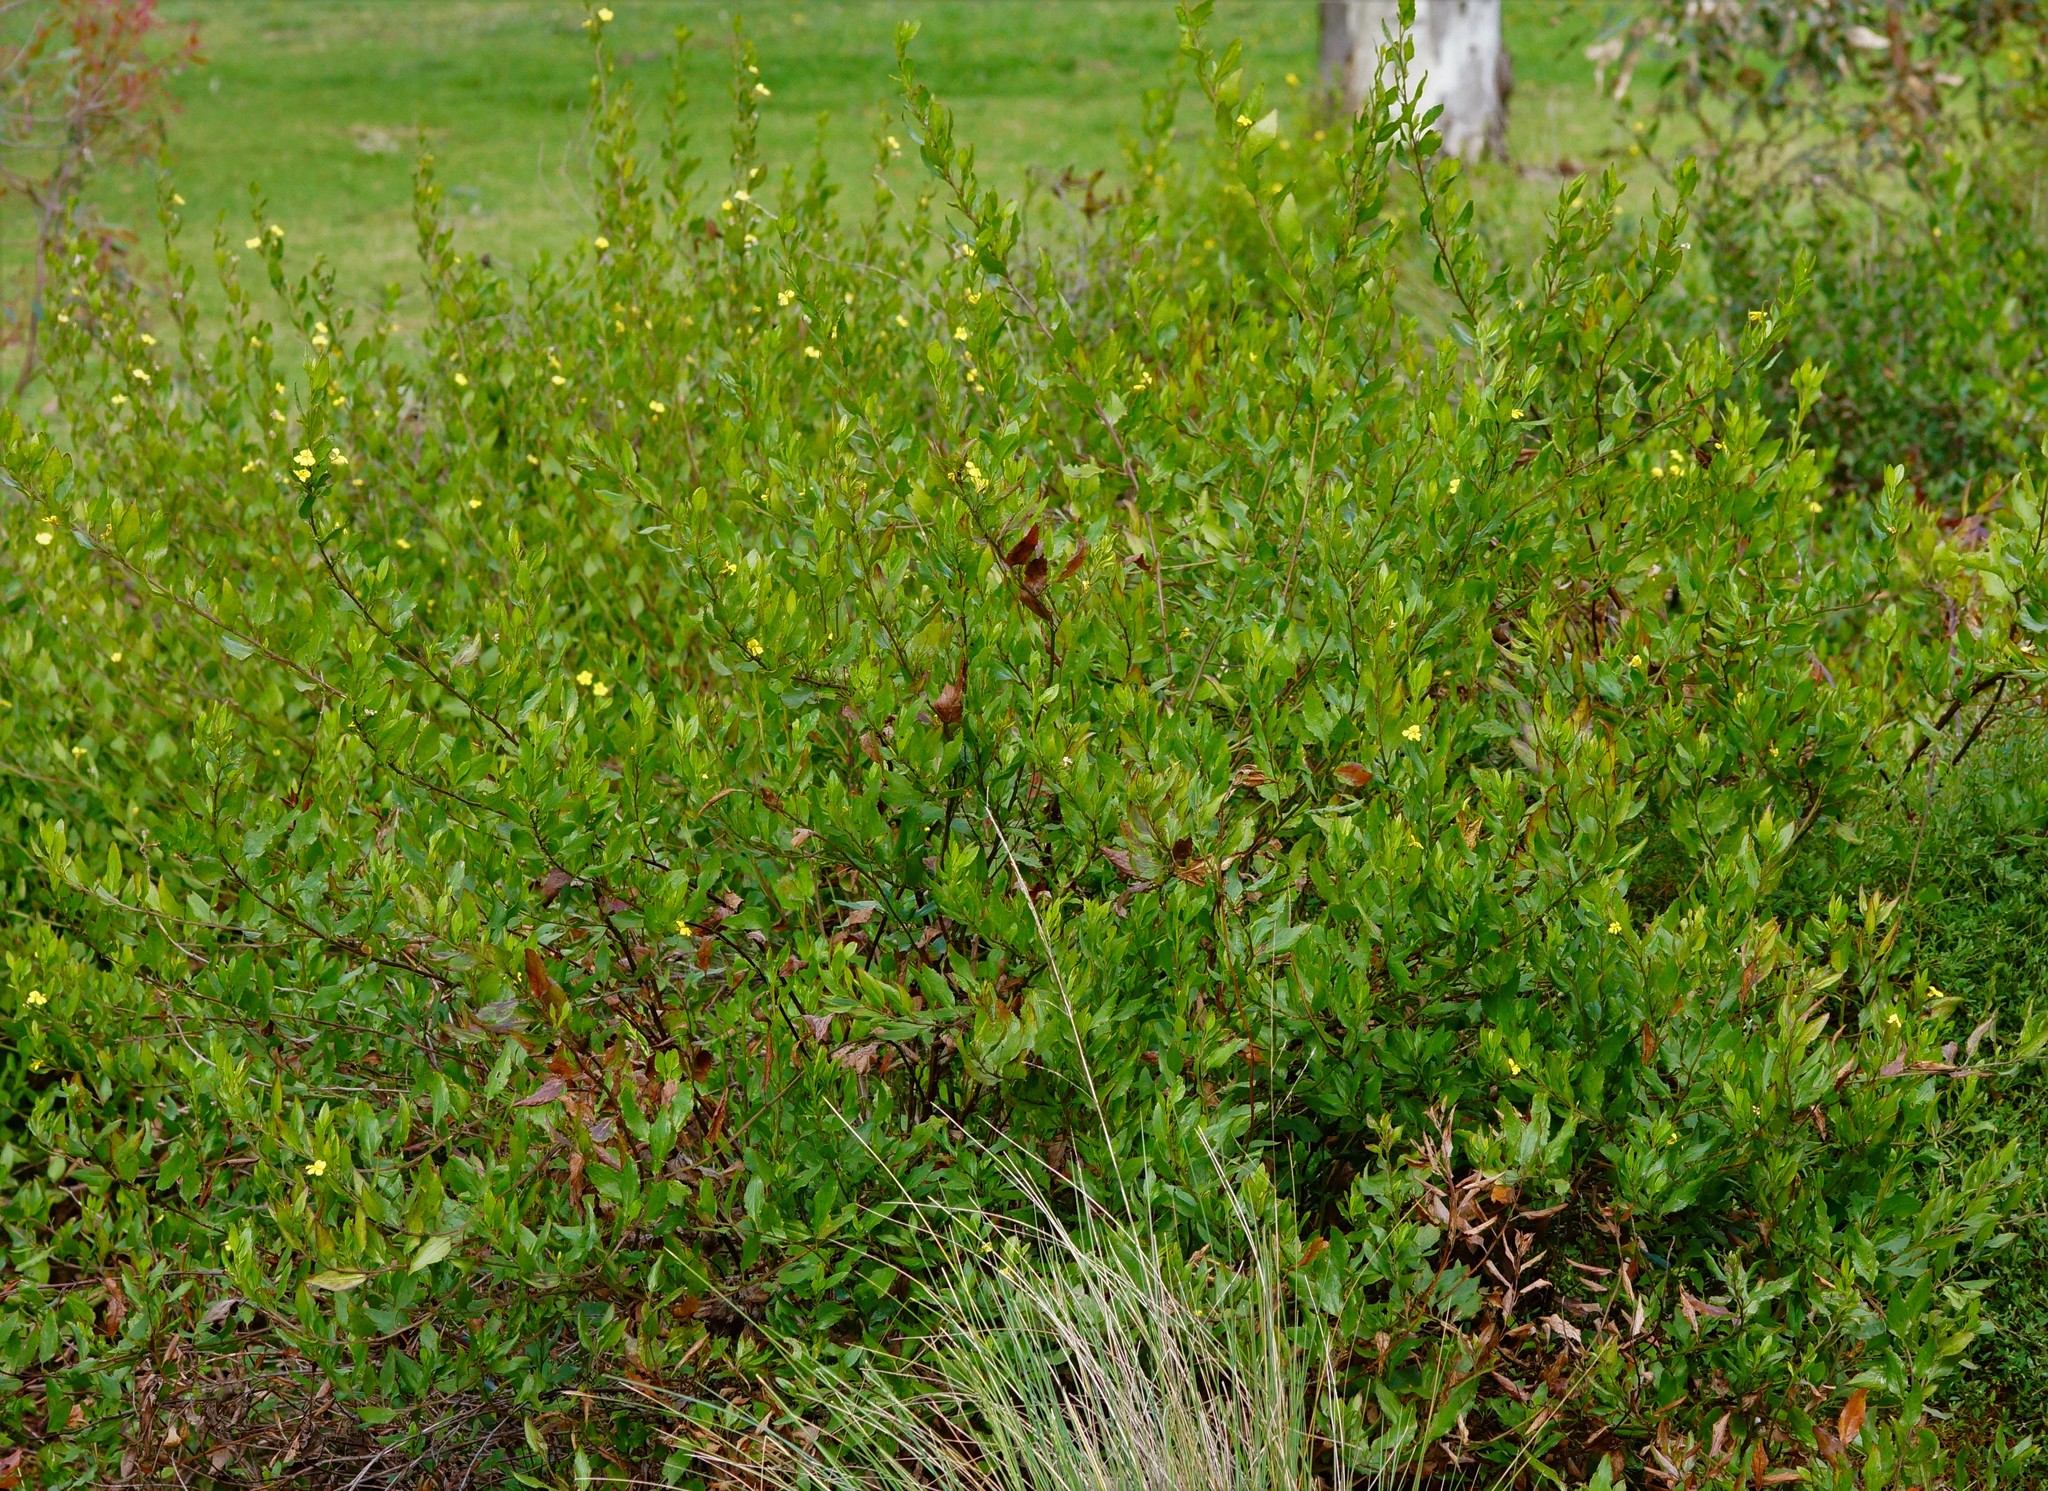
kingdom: Plantae
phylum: Tracheophyta
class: Magnoliopsida
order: Asterales
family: Goodeniaceae
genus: Goodenia
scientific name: Goodenia ovata
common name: Hop goodenia
